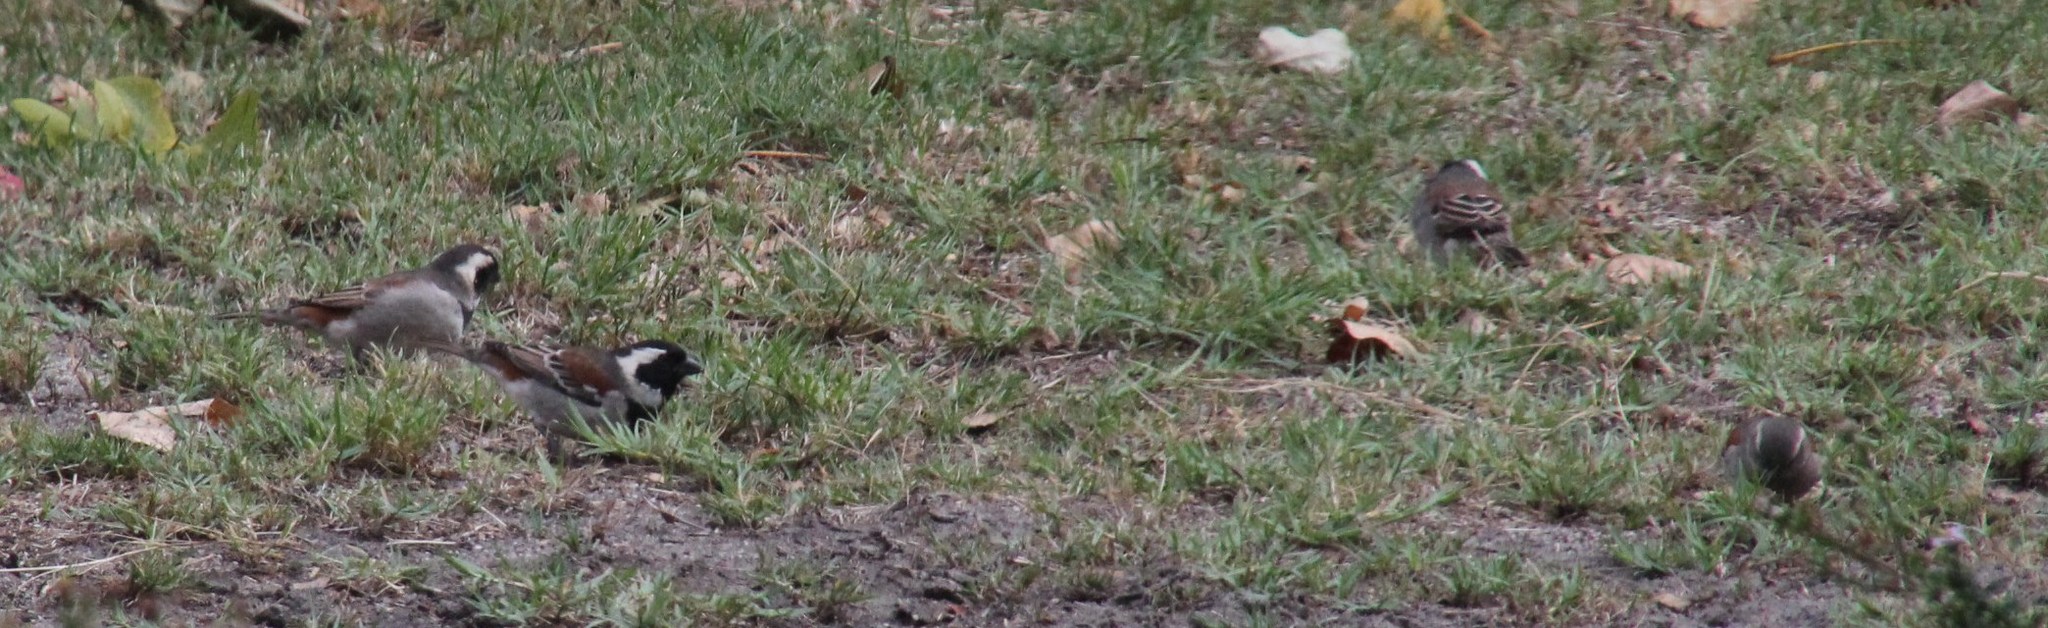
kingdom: Animalia
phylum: Chordata
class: Aves
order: Passeriformes
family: Passeridae
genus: Passer
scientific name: Passer melanurus
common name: Cape sparrow
